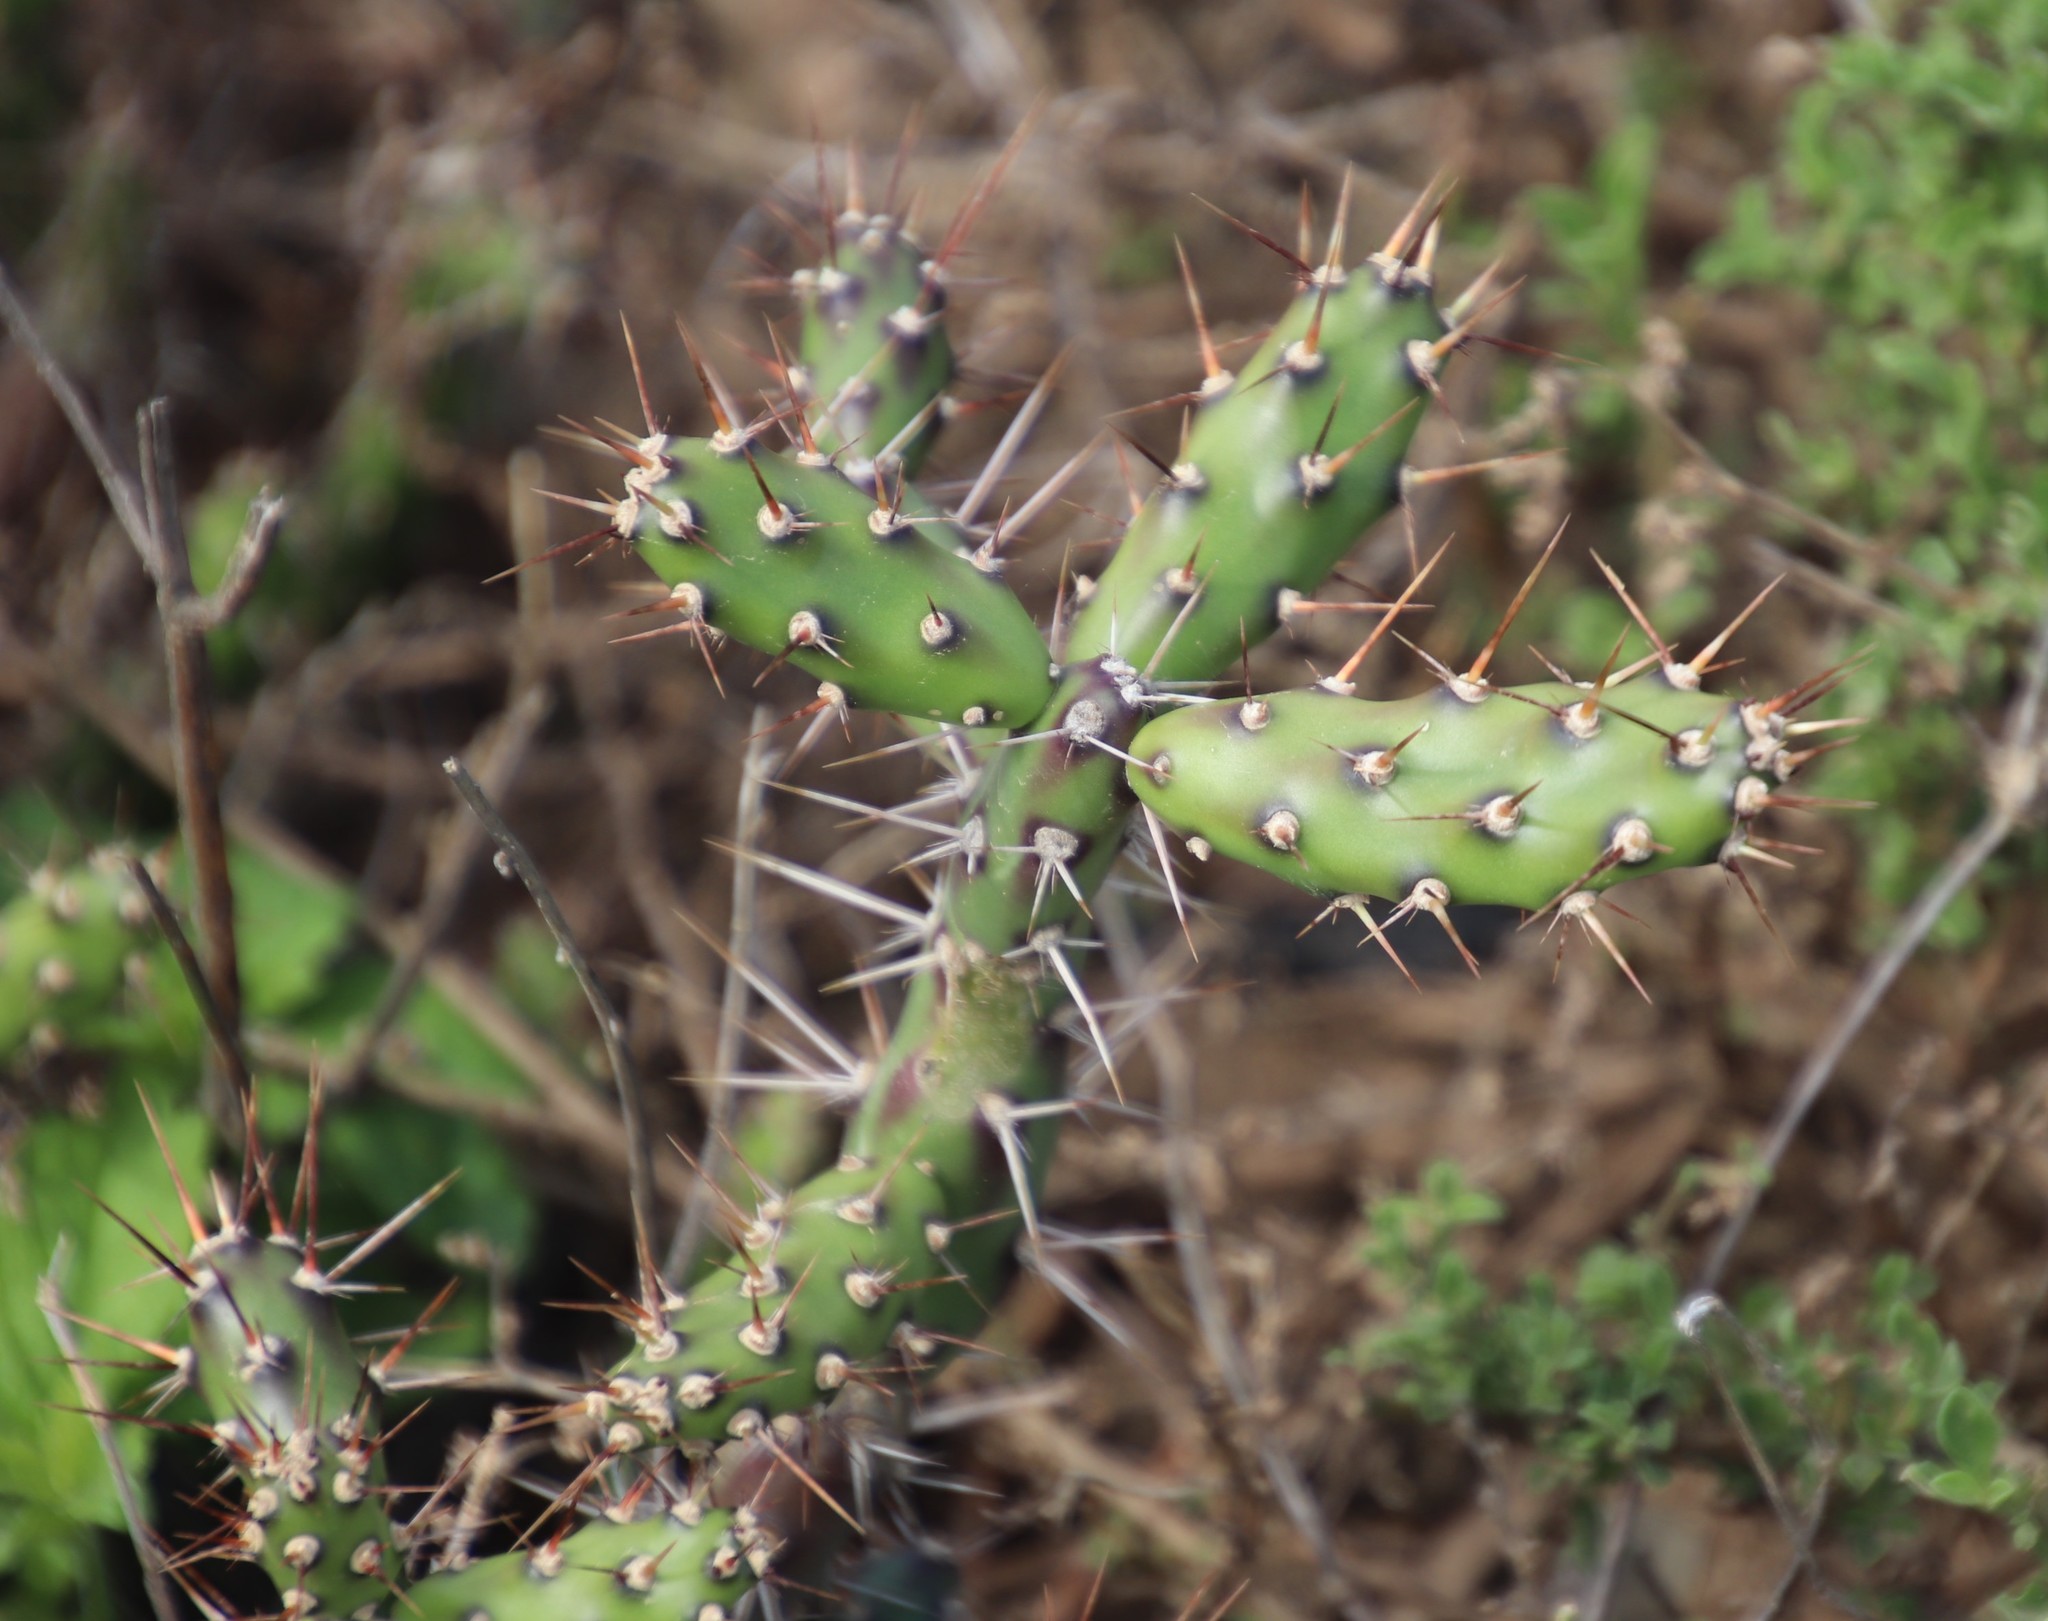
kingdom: Plantae
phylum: Tracheophyta
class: Magnoliopsida
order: Caryophyllales
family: Cactaceae
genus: Opuntia
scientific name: Opuntia aurantiaca
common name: Jointed pricklypear
